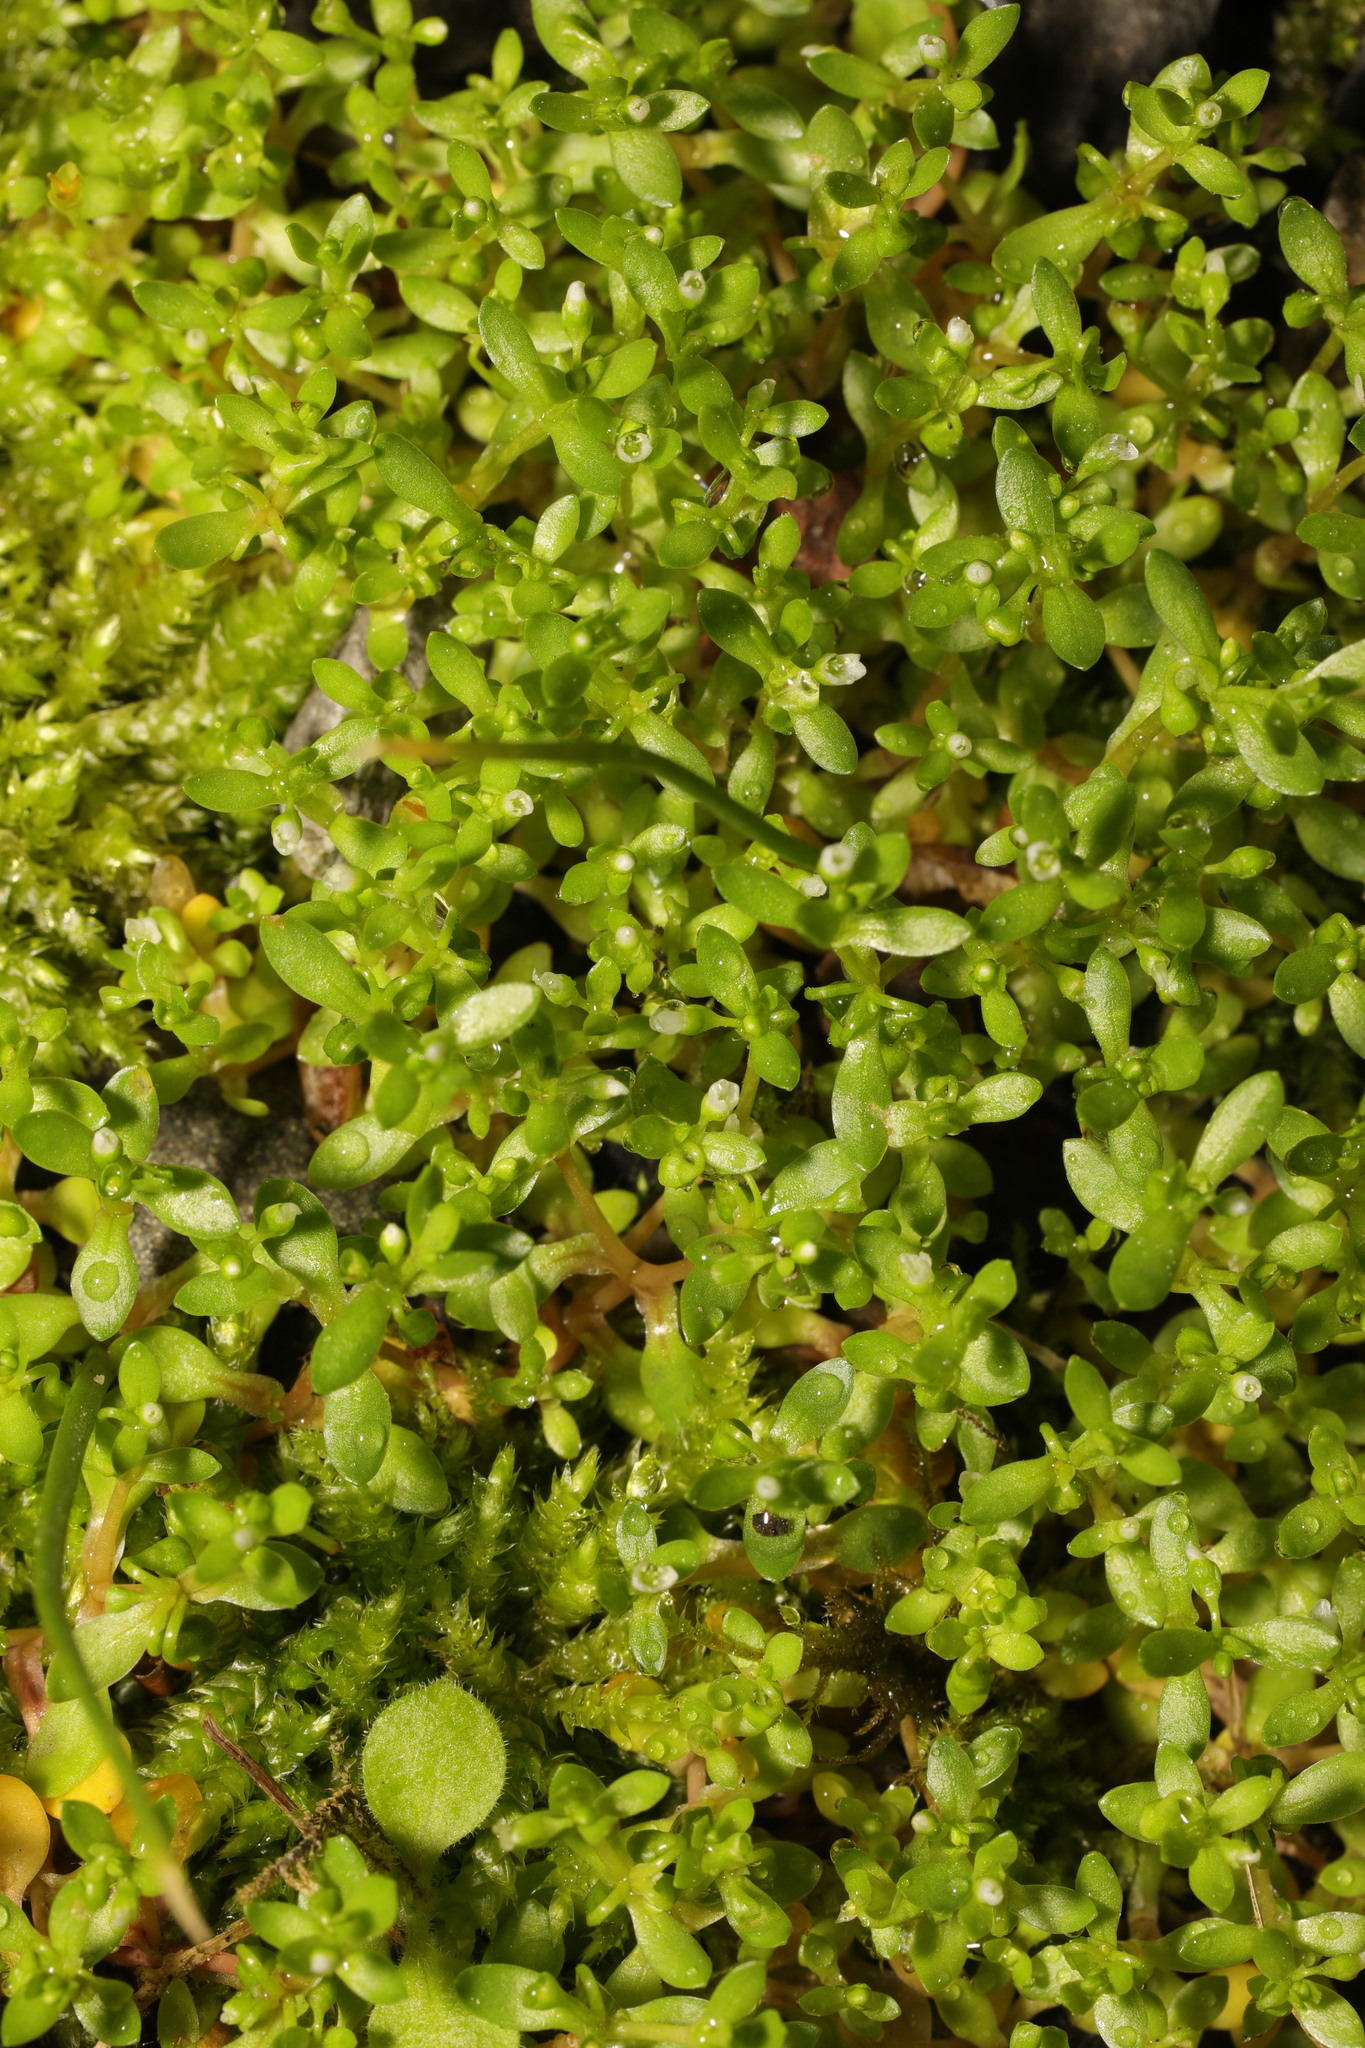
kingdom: Plantae
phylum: Tracheophyta
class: Magnoliopsida
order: Caryophyllales
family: Montiaceae
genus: Montia
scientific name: Montia fontana
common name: Blinks
